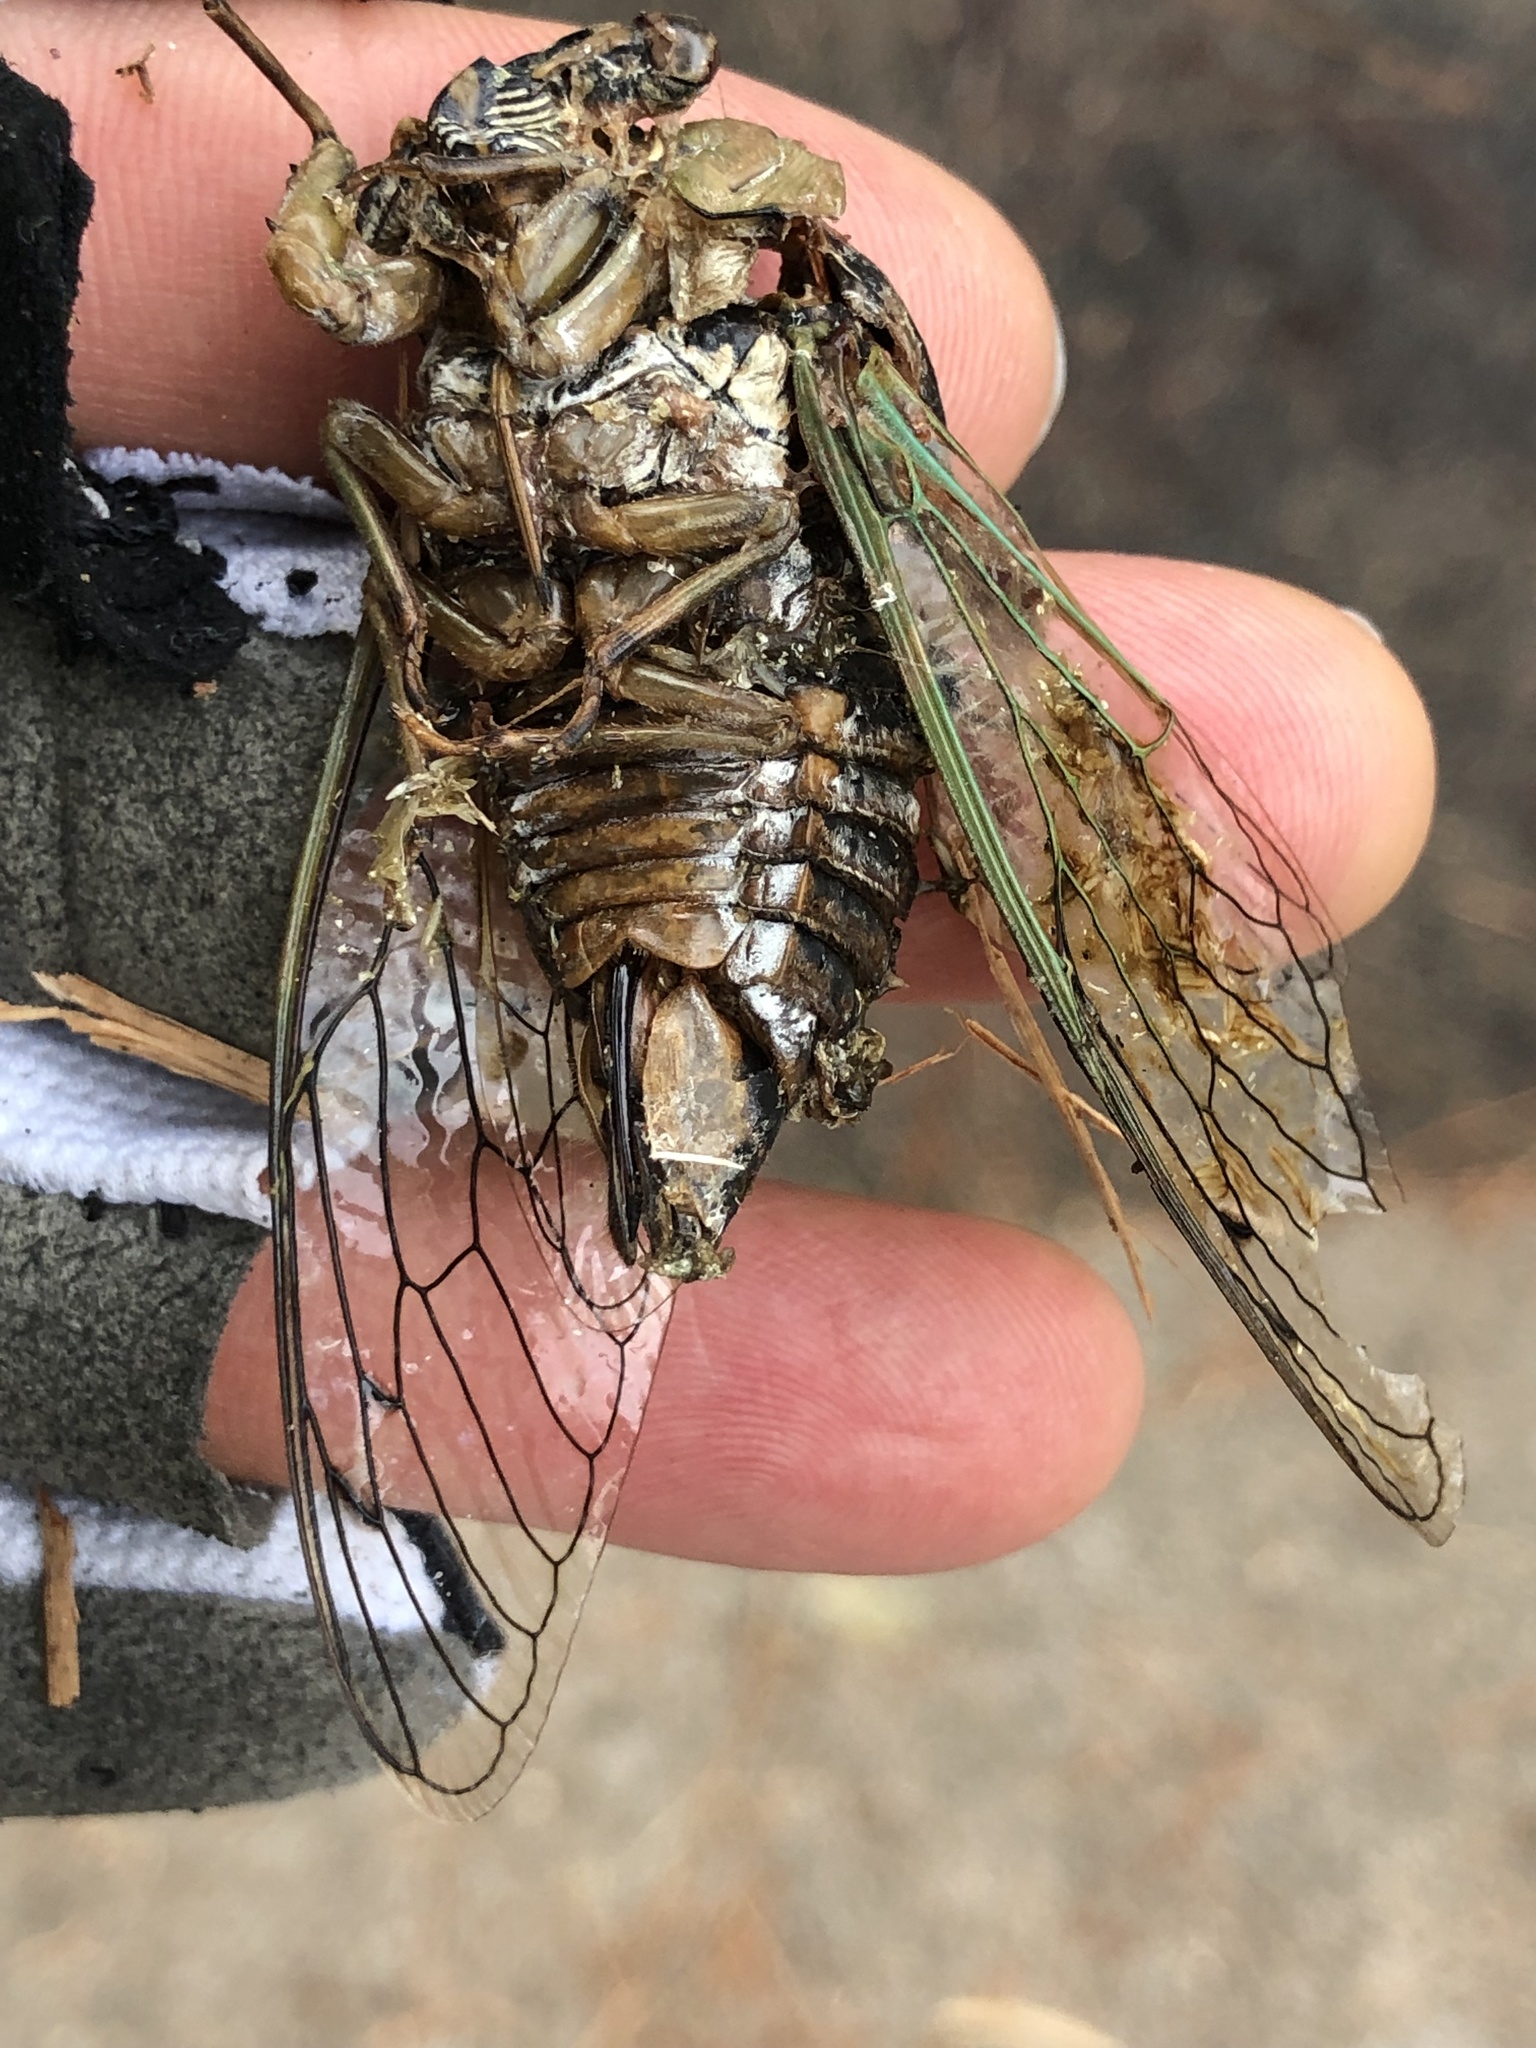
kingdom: Animalia
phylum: Arthropoda
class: Insecta
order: Hemiptera
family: Cicadidae
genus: Megatibicen
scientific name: Megatibicen resh
